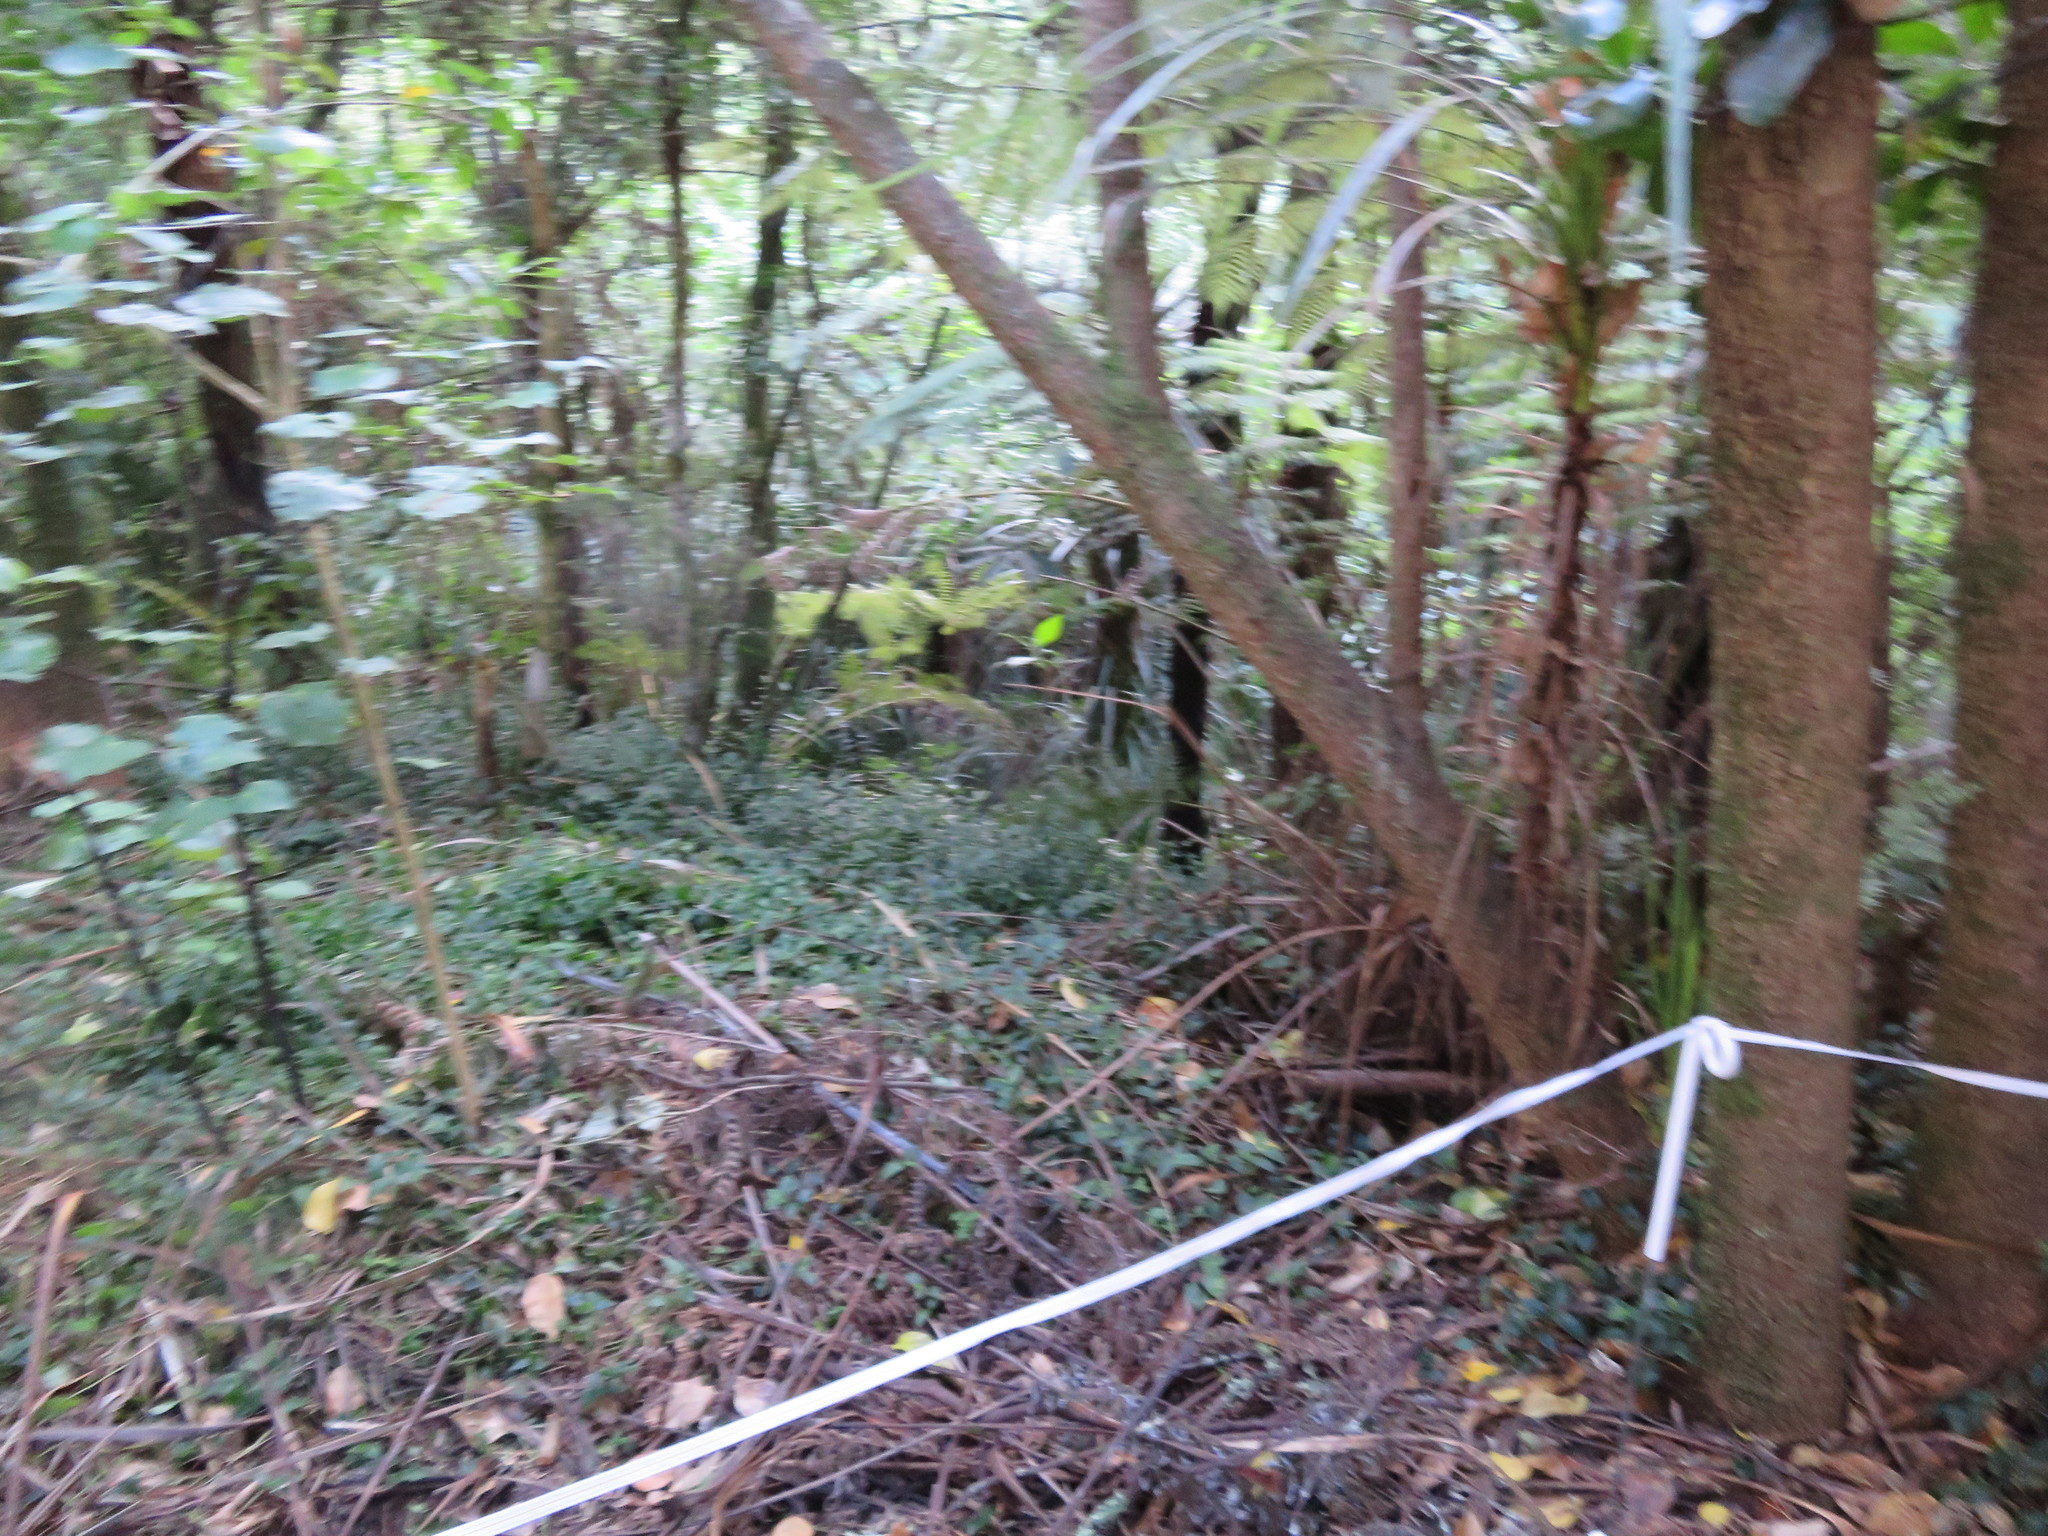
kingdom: Plantae
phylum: Tracheophyta
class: Liliopsida
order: Asparagales
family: Asparagaceae
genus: Cordyline
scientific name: Cordyline australis
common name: Cabbage-palm
